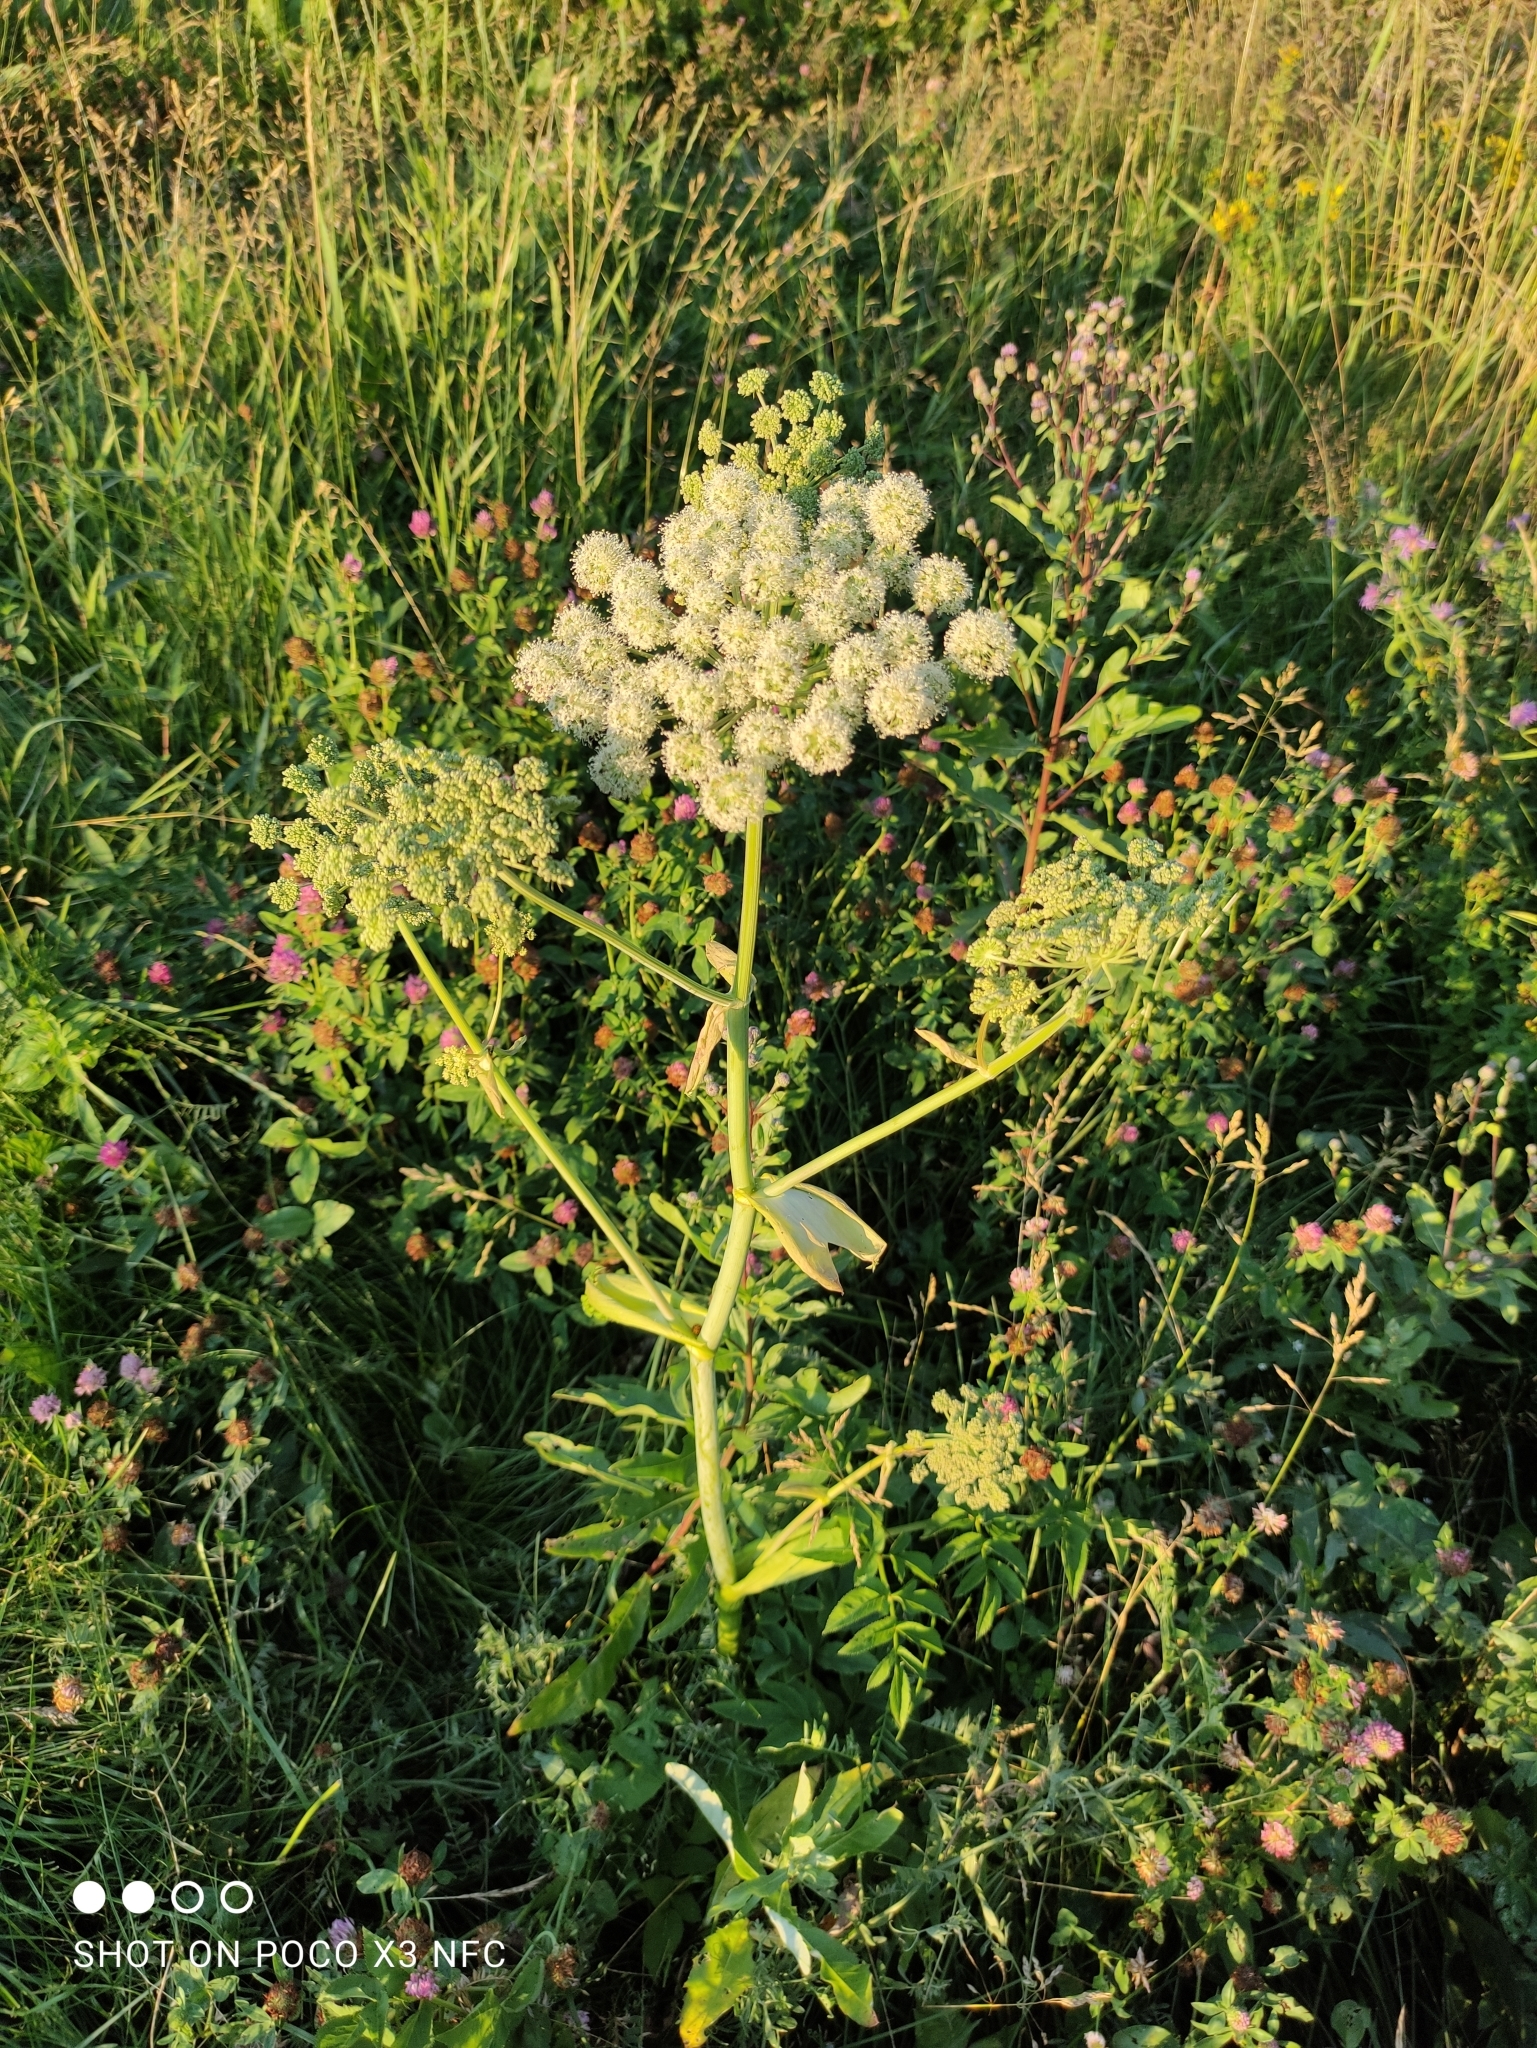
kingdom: Plantae
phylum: Tracheophyta
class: Magnoliopsida
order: Apiales
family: Apiaceae
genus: Angelica
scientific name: Angelica sylvestris
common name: Wild angelica
